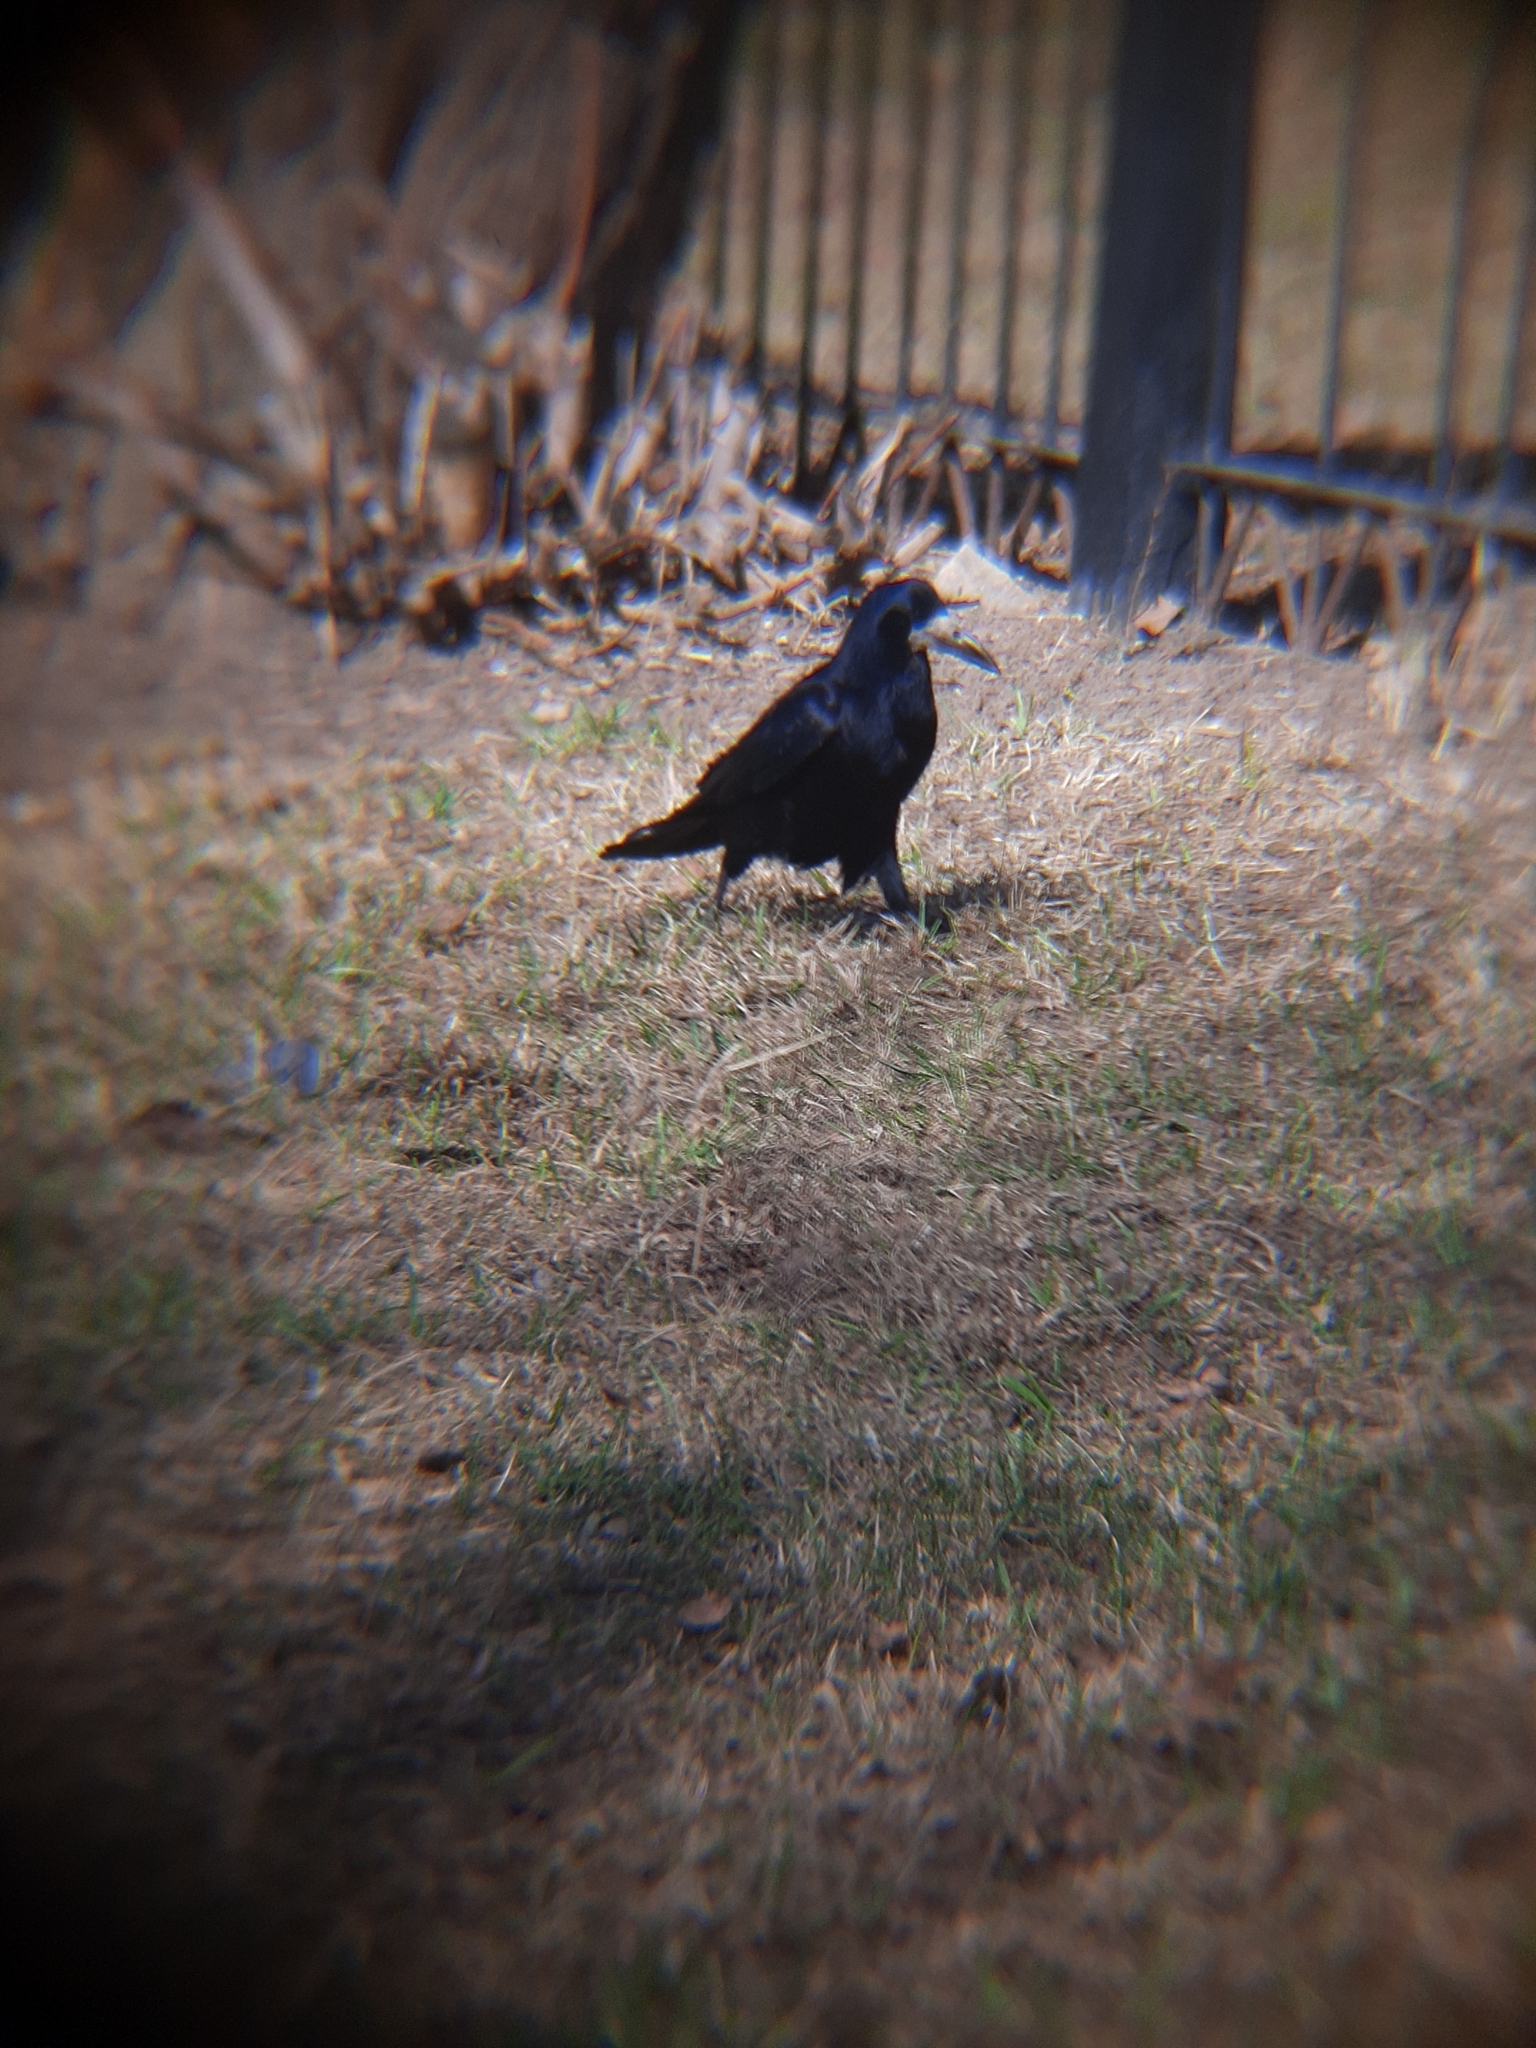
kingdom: Animalia
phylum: Chordata
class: Aves
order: Passeriformes
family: Corvidae
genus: Corvus
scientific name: Corvus frugilegus
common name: Rook
